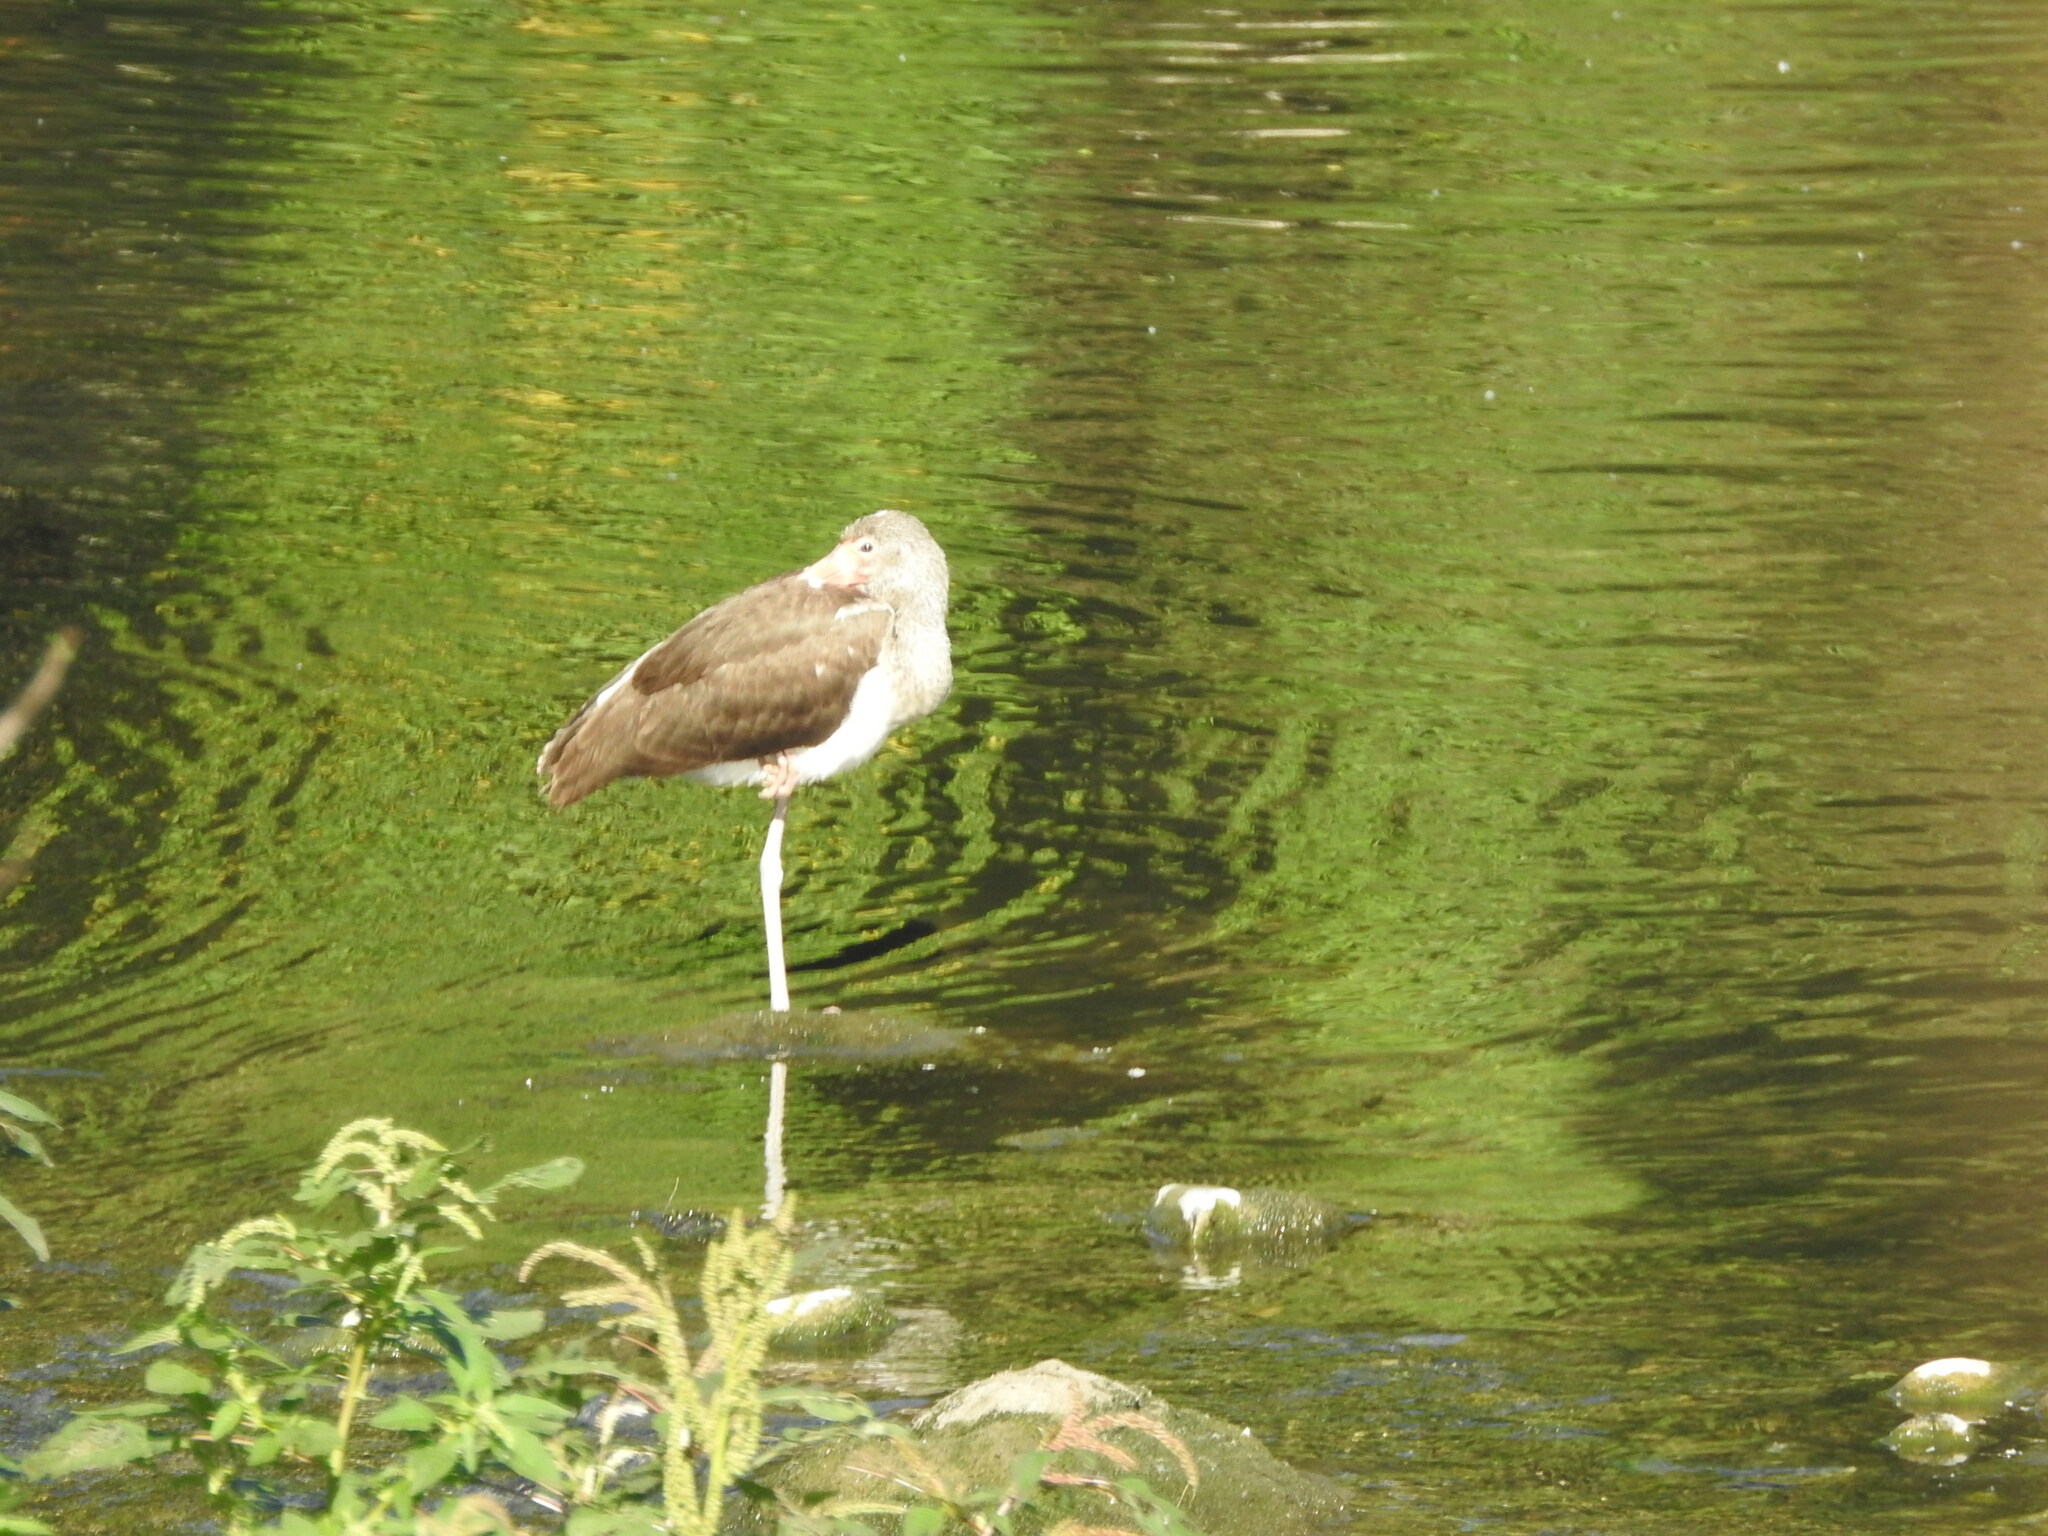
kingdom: Animalia
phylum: Chordata
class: Aves
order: Pelecaniformes
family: Threskiornithidae
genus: Eudocimus
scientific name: Eudocimus albus
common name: White ibis
